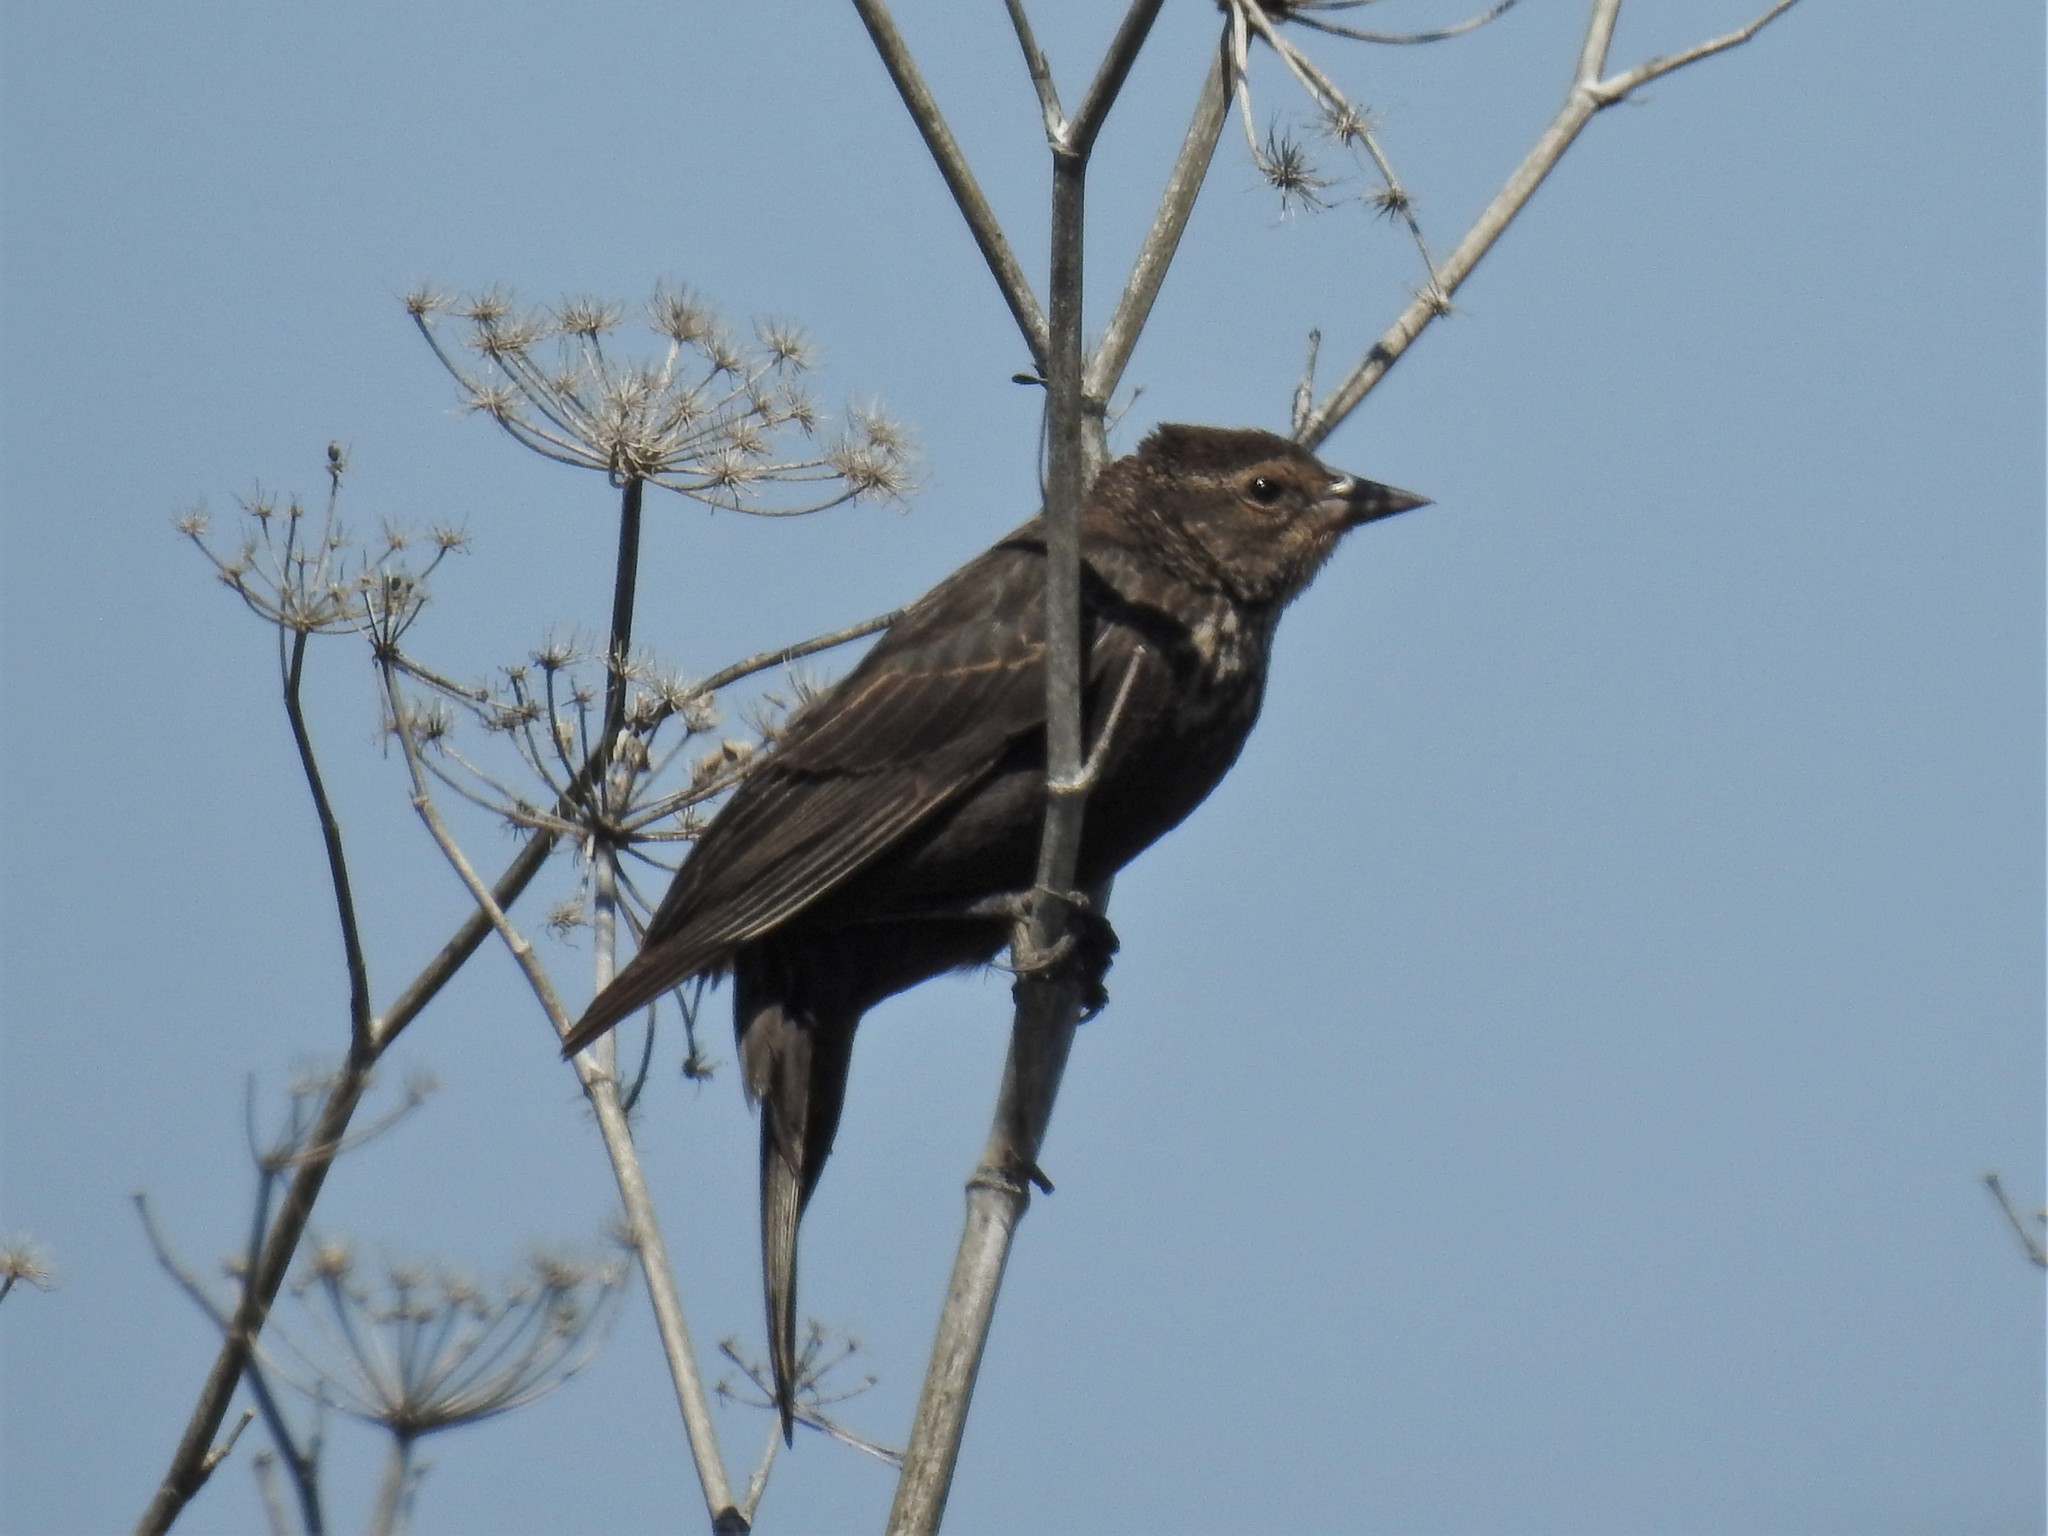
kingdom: Animalia
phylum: Chordata
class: Aves
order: Passeriformes
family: Icteridae
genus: Agelaius
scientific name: Agelaius phoeniceus
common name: Red-winged blackbird
